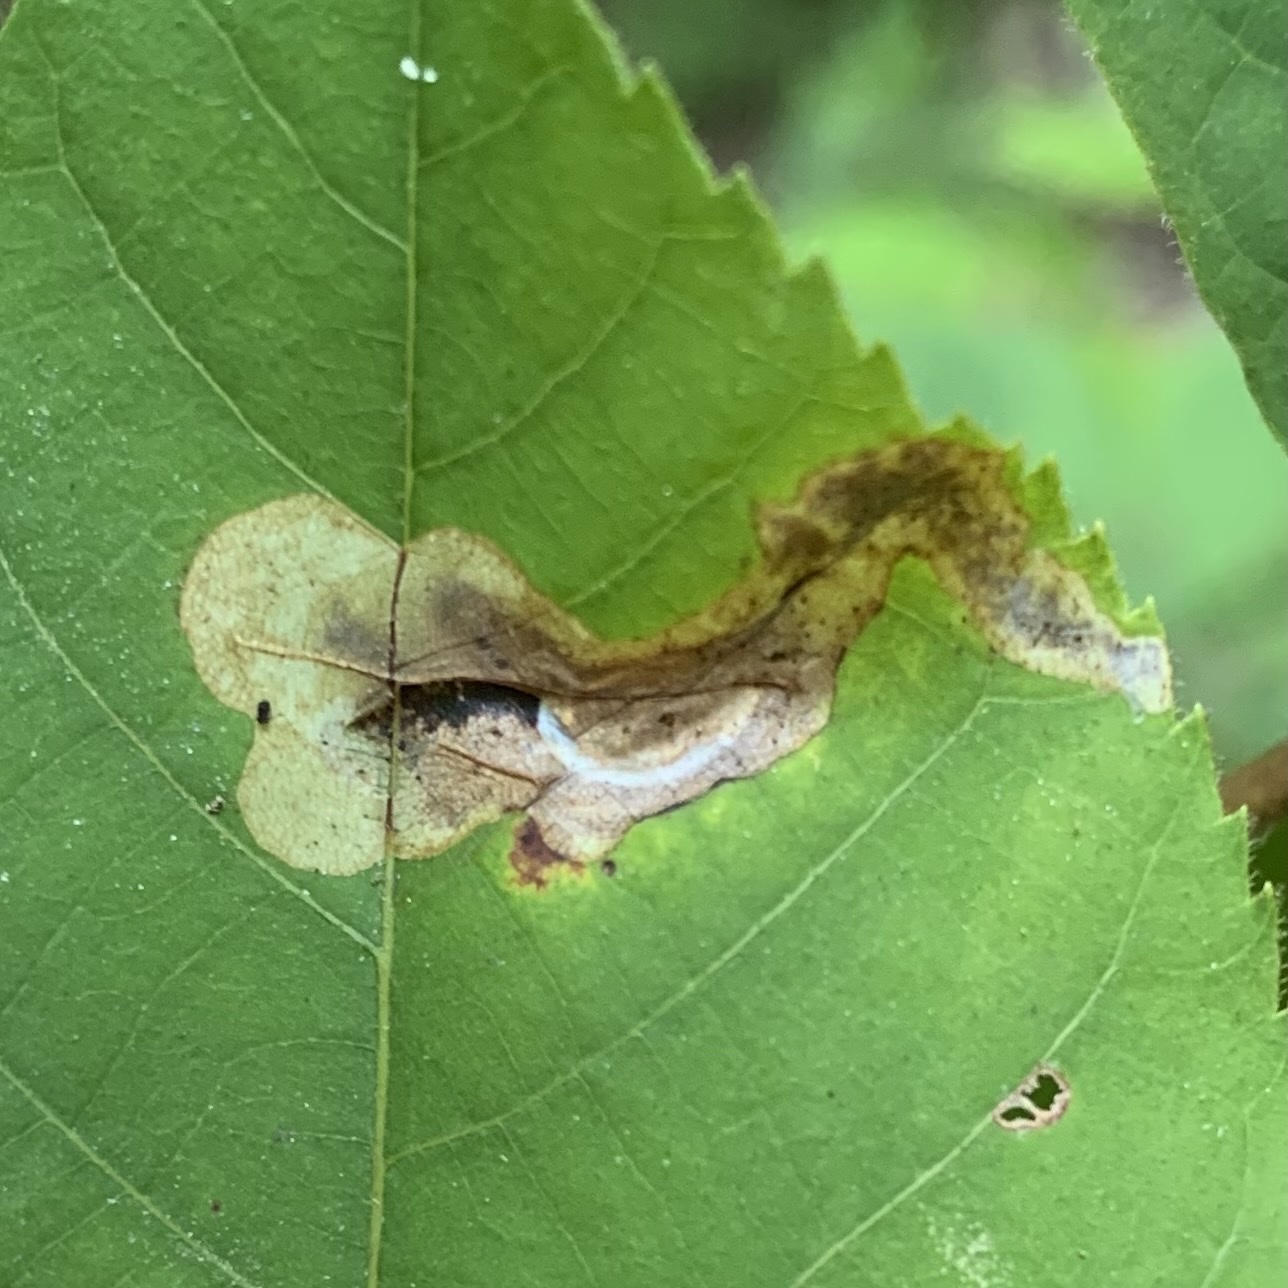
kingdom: Animalia
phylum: Arthropoda
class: Insecta
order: Lepidoptera
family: Gracillariidae
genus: Cameraria
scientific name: Cameraria caryaefoliella
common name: Pecan leafminer moth
